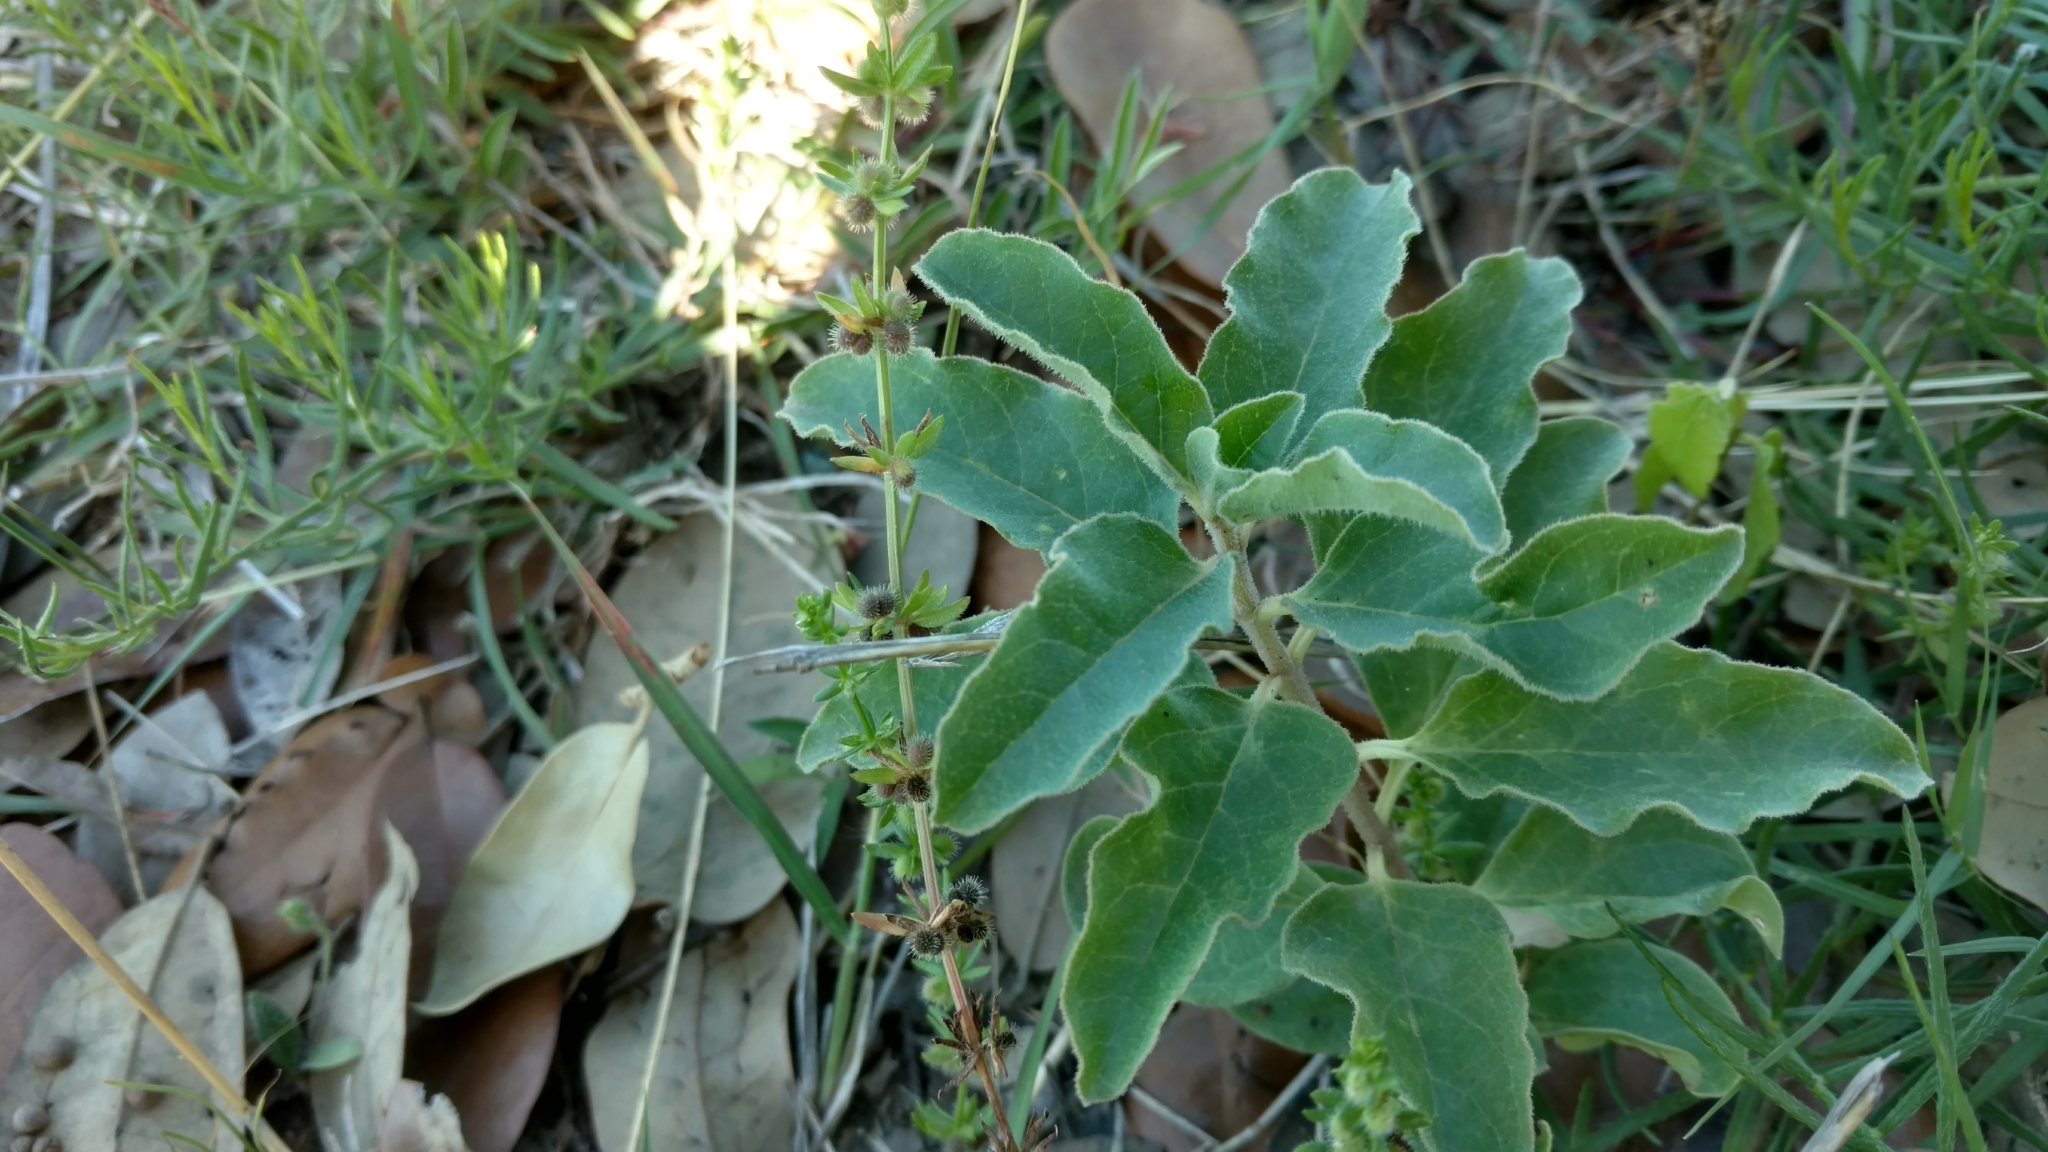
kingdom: Plantae
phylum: Tracheophyta
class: Magnoliopsida
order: Gentianales
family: Apocynaceae
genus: Asclepias
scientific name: Asclepias oenotheroides
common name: Zizotes milkweed
